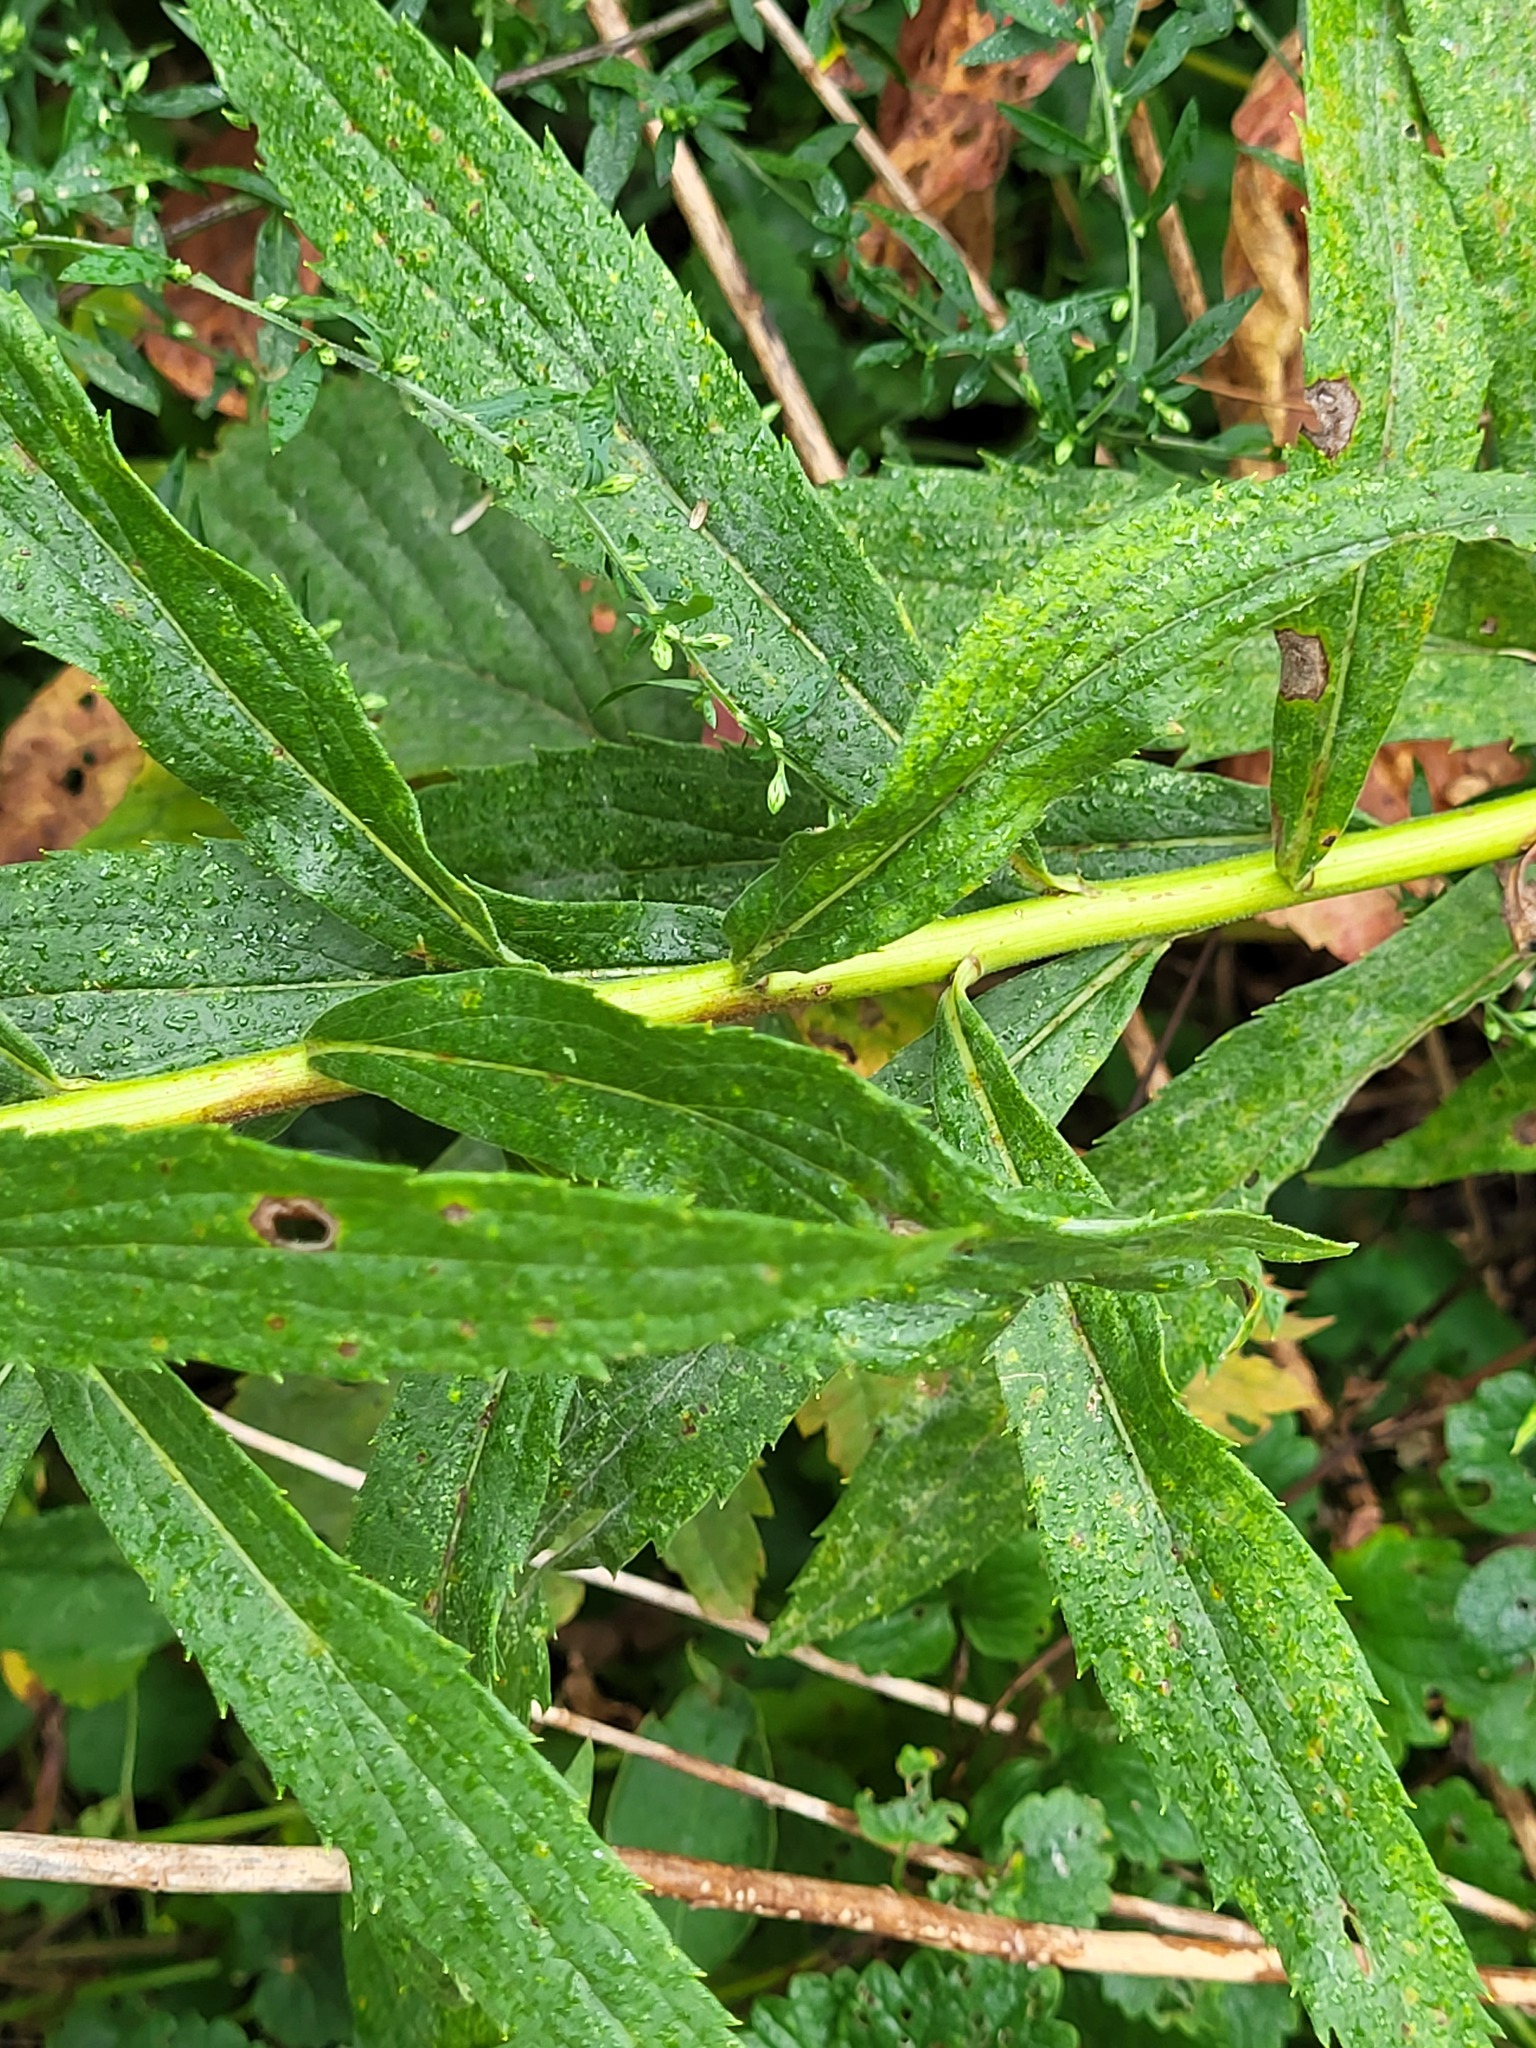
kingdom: Plantae
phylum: Tracheophyta
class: Magnoliopsida
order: Asterales
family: Asteraceae
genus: Solidago
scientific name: Solidago canadensis
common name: Canada goldenrod
